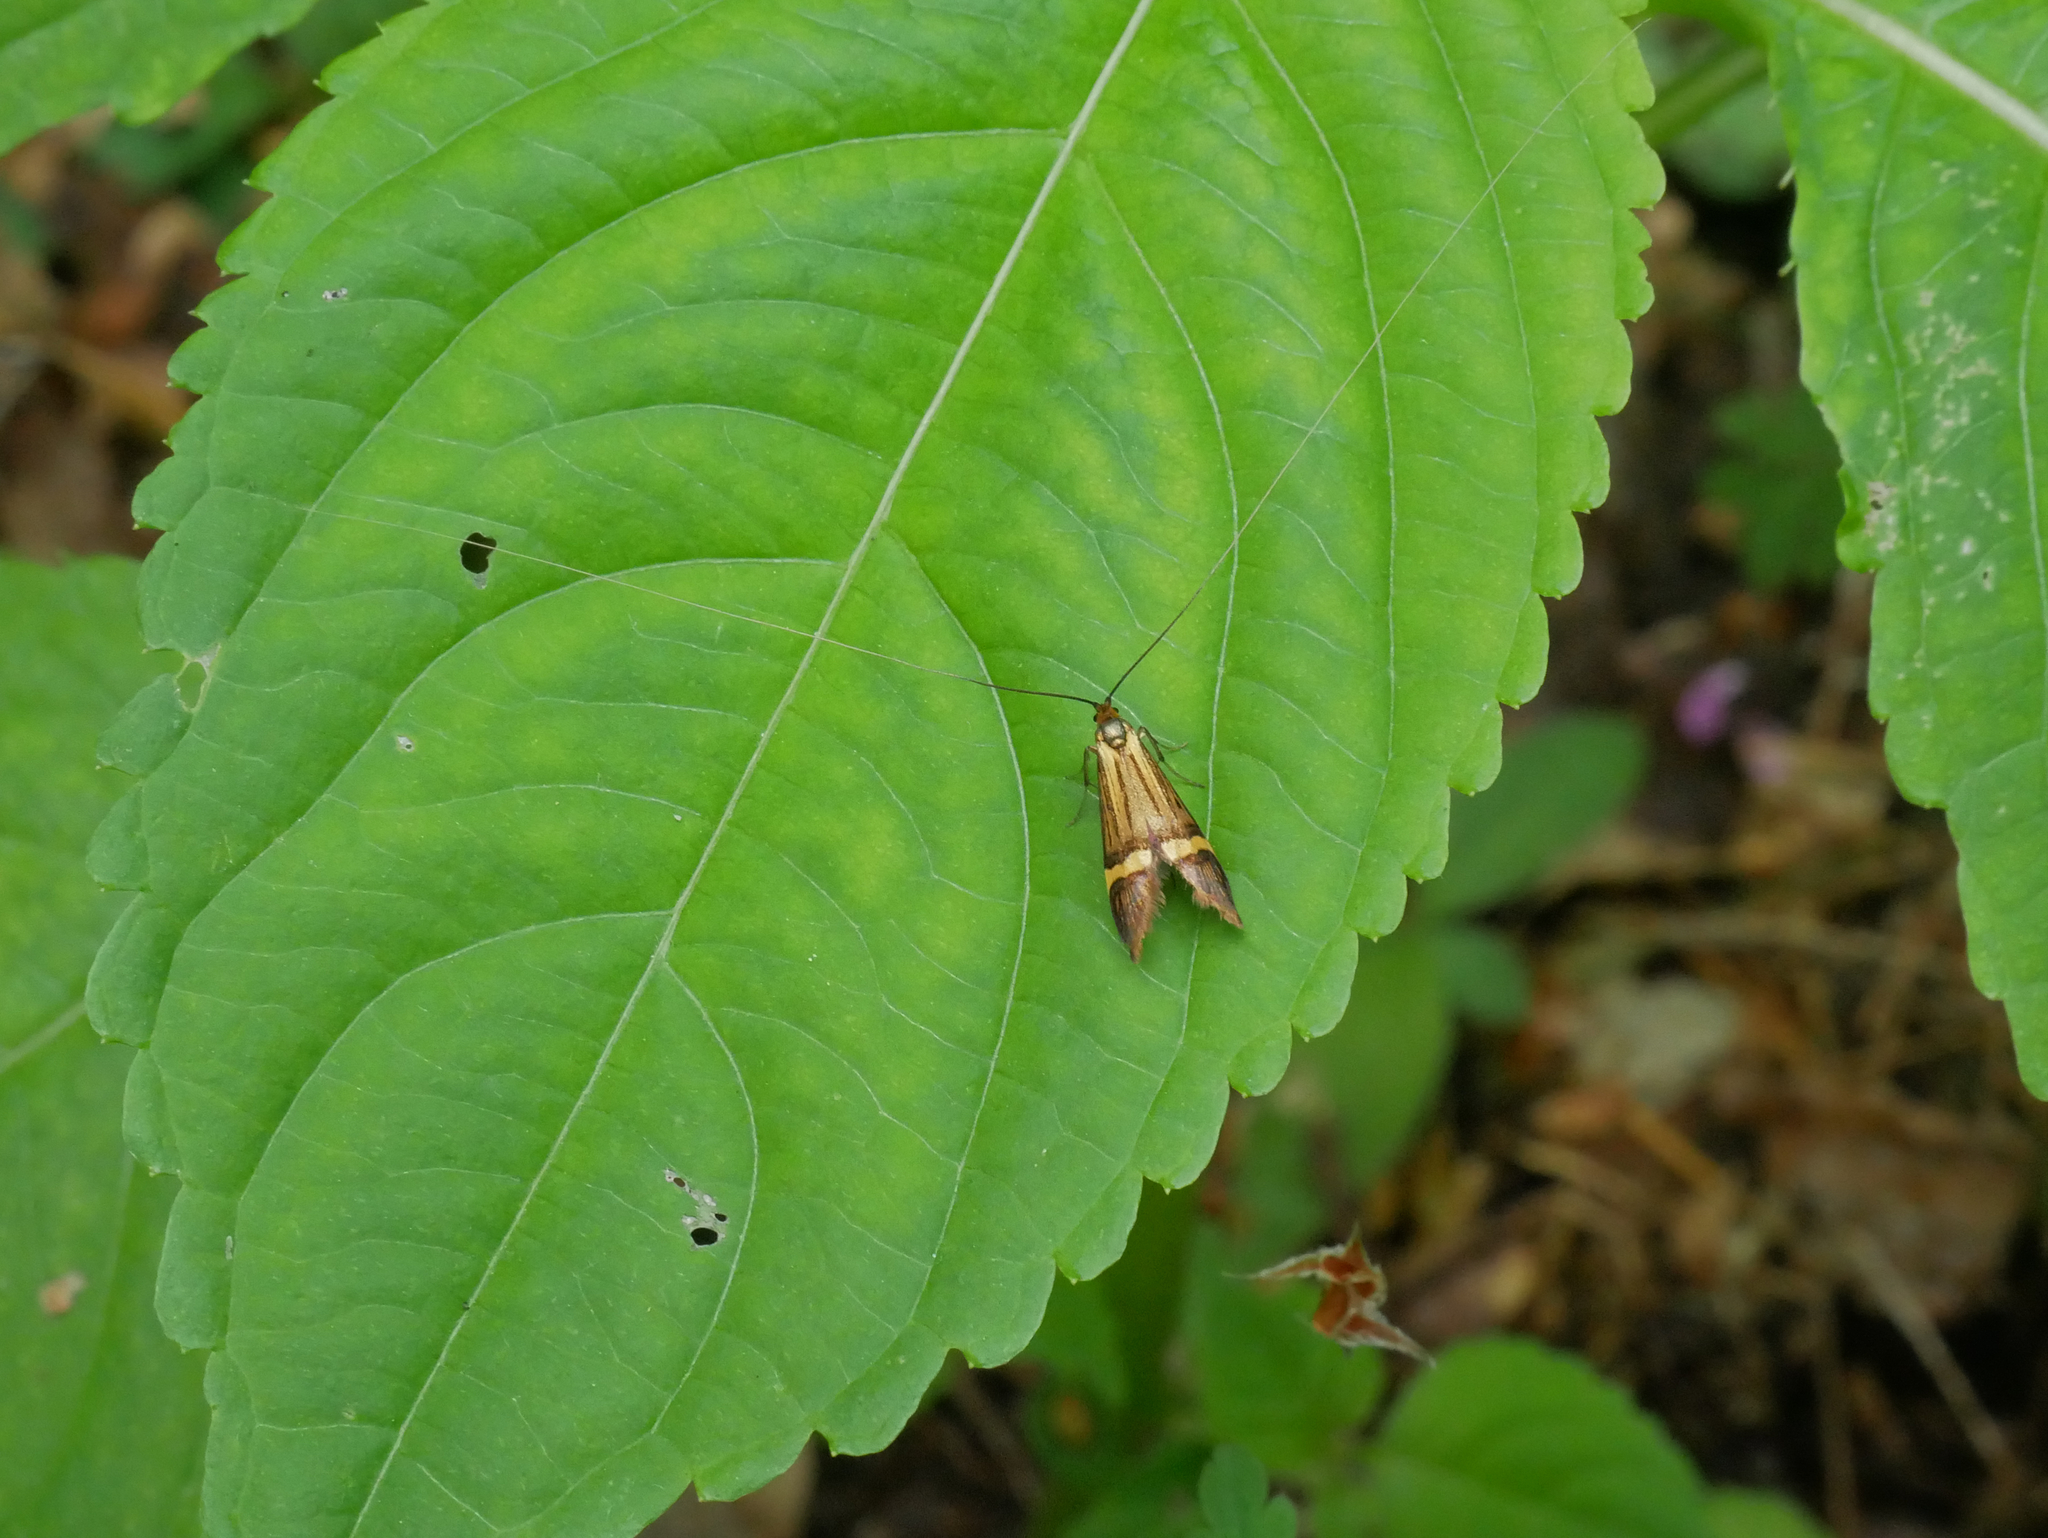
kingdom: Animalia
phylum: Arthropoda
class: Insecta
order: Lepidoptera
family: Adelidae
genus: Nemophora
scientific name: Nemophora degeerella
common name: Yellow-barred long-horn
